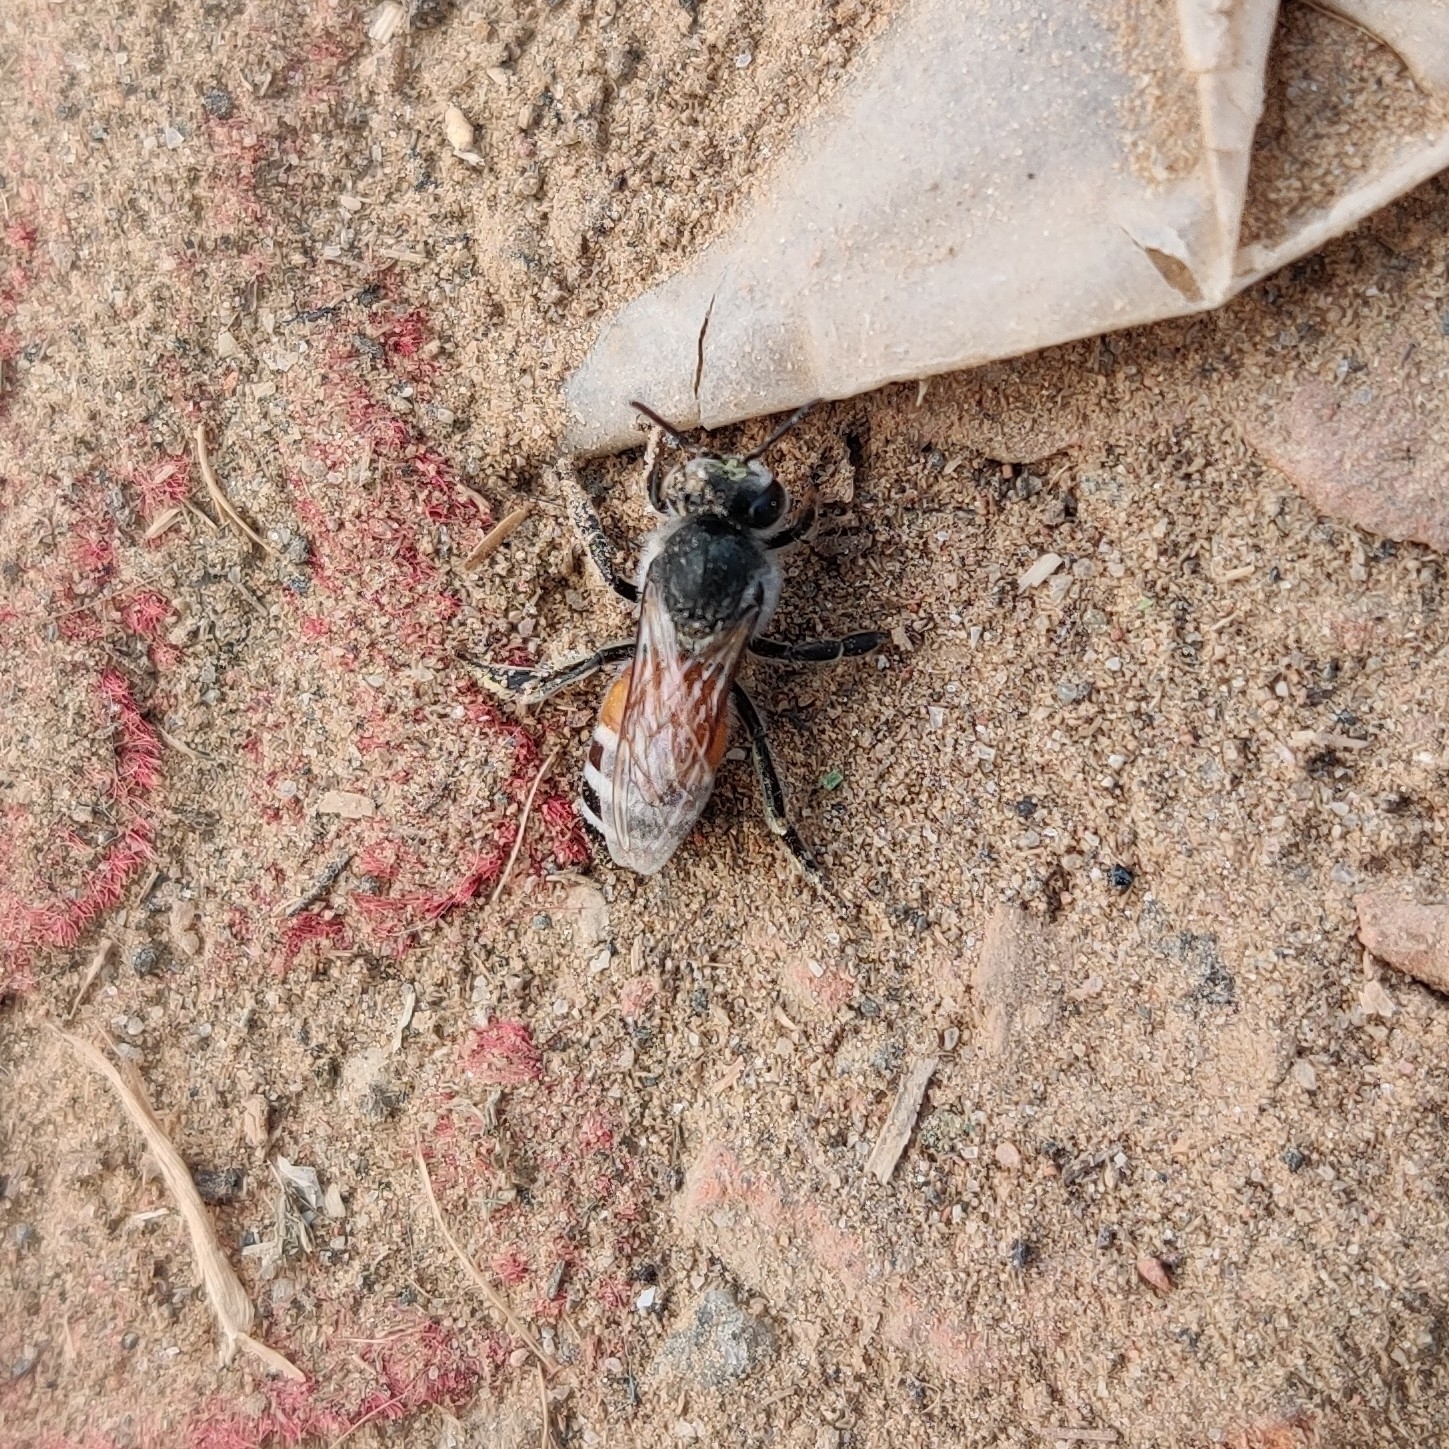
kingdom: Animalia
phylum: Arthropoda
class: Insecta
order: Hymenoptera
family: Apidae
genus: Apis
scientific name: Apis florea
